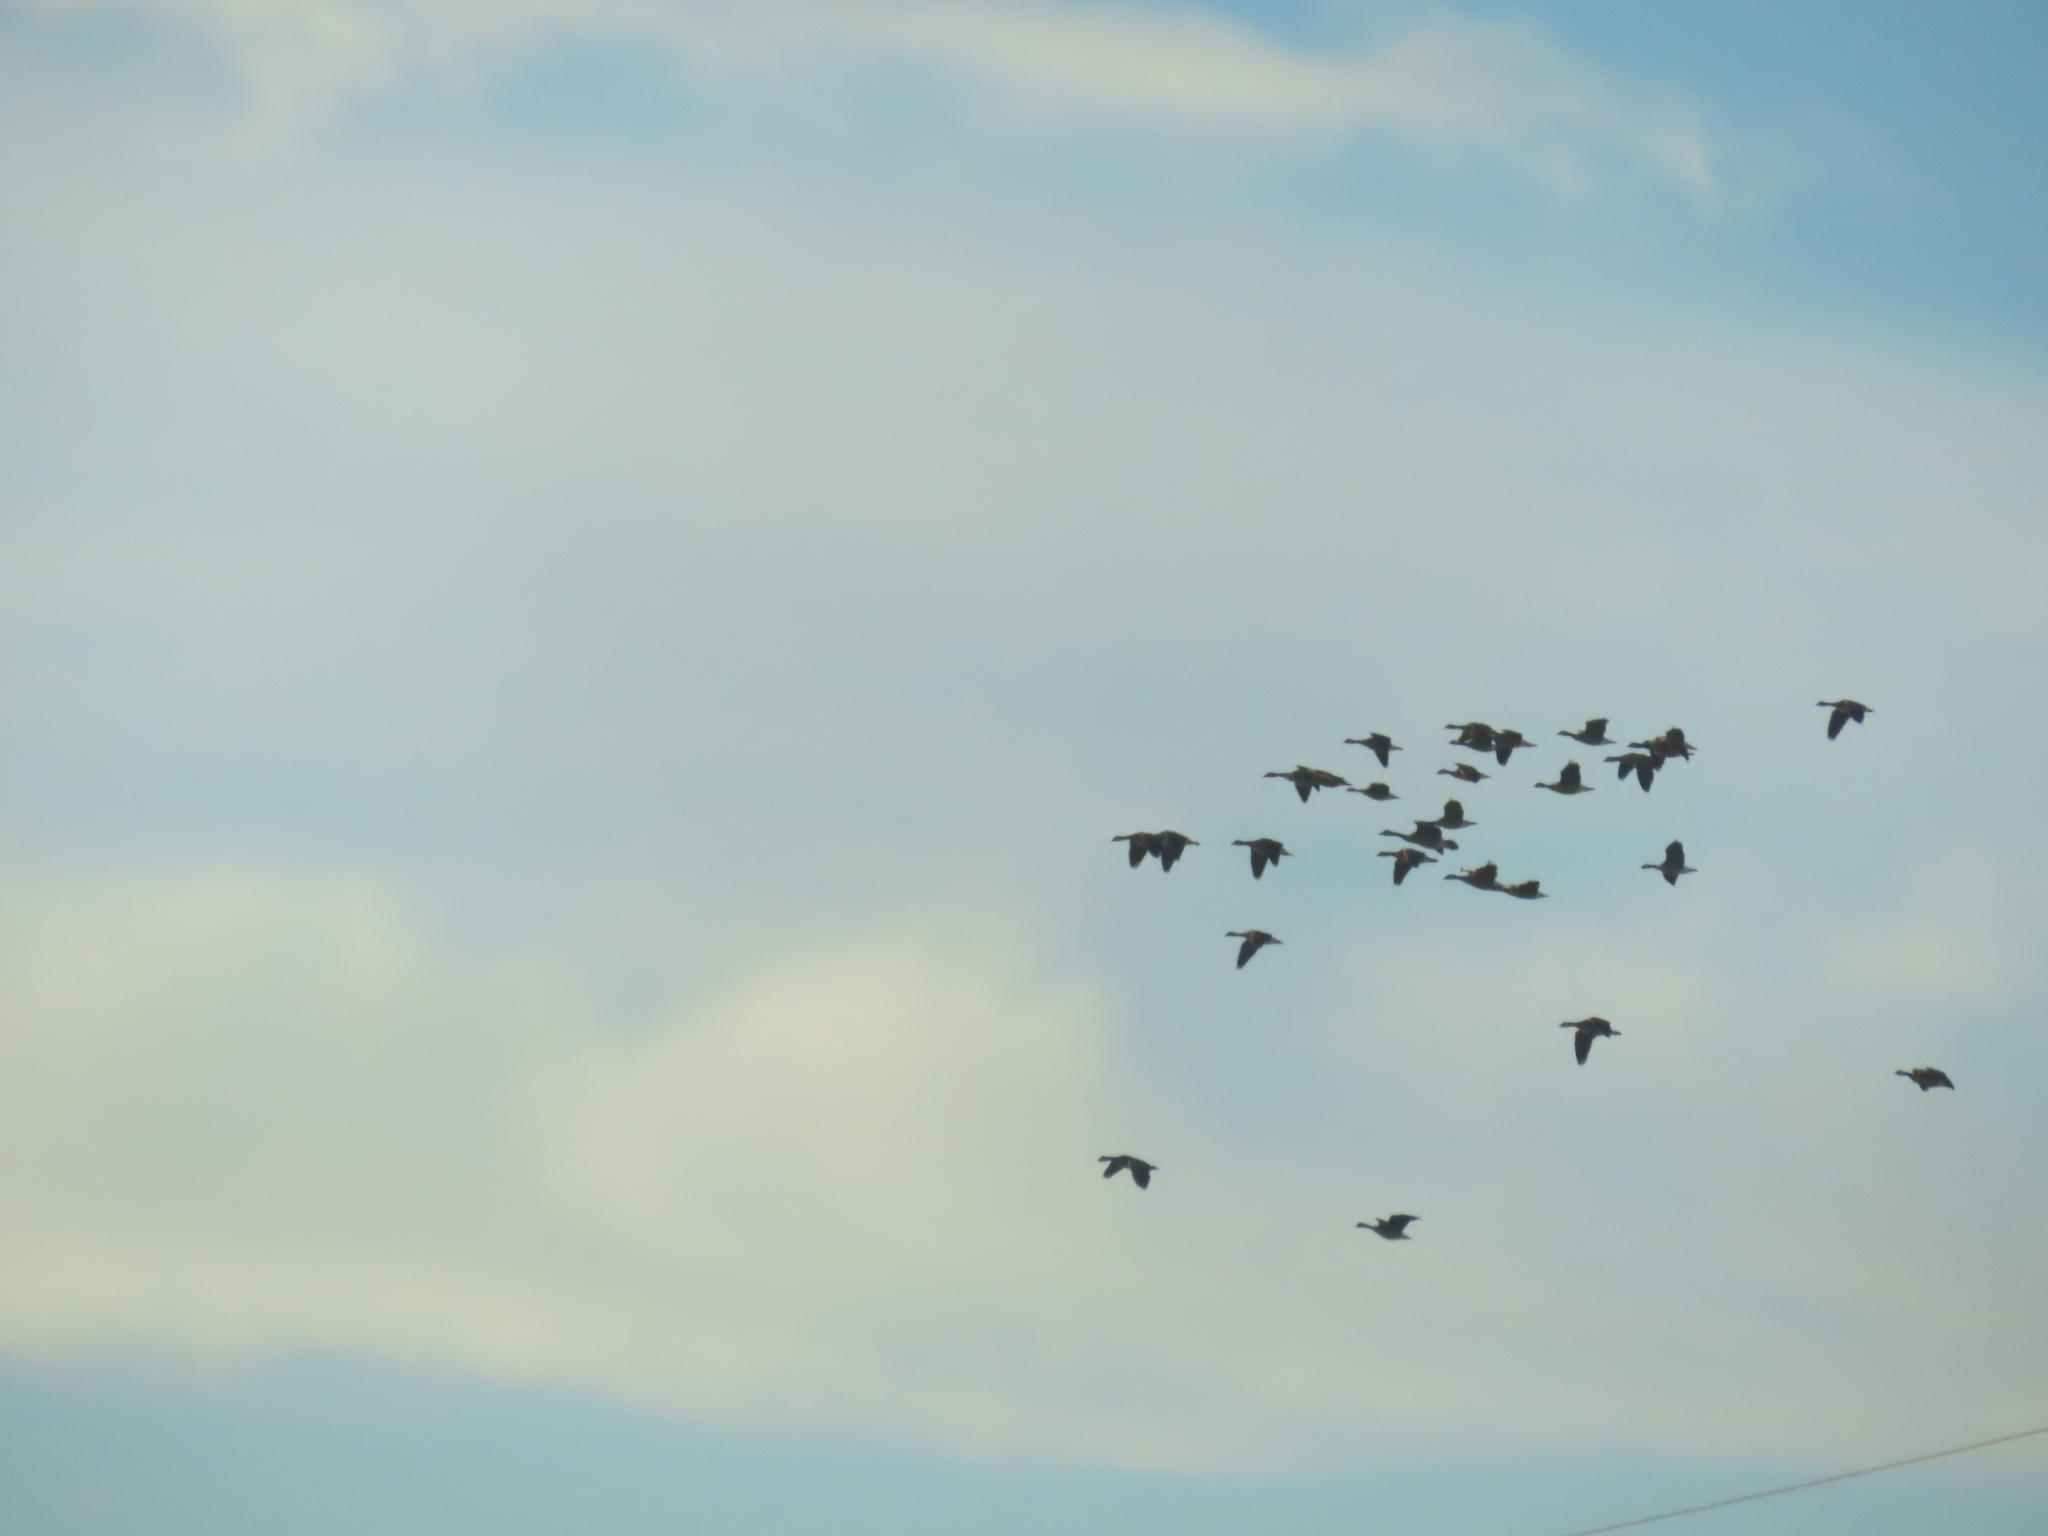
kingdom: Animalia
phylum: Chordata
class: Aves
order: Anseriformes
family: Anatidae
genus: Branta
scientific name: Branta canadensis
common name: Canada goose
